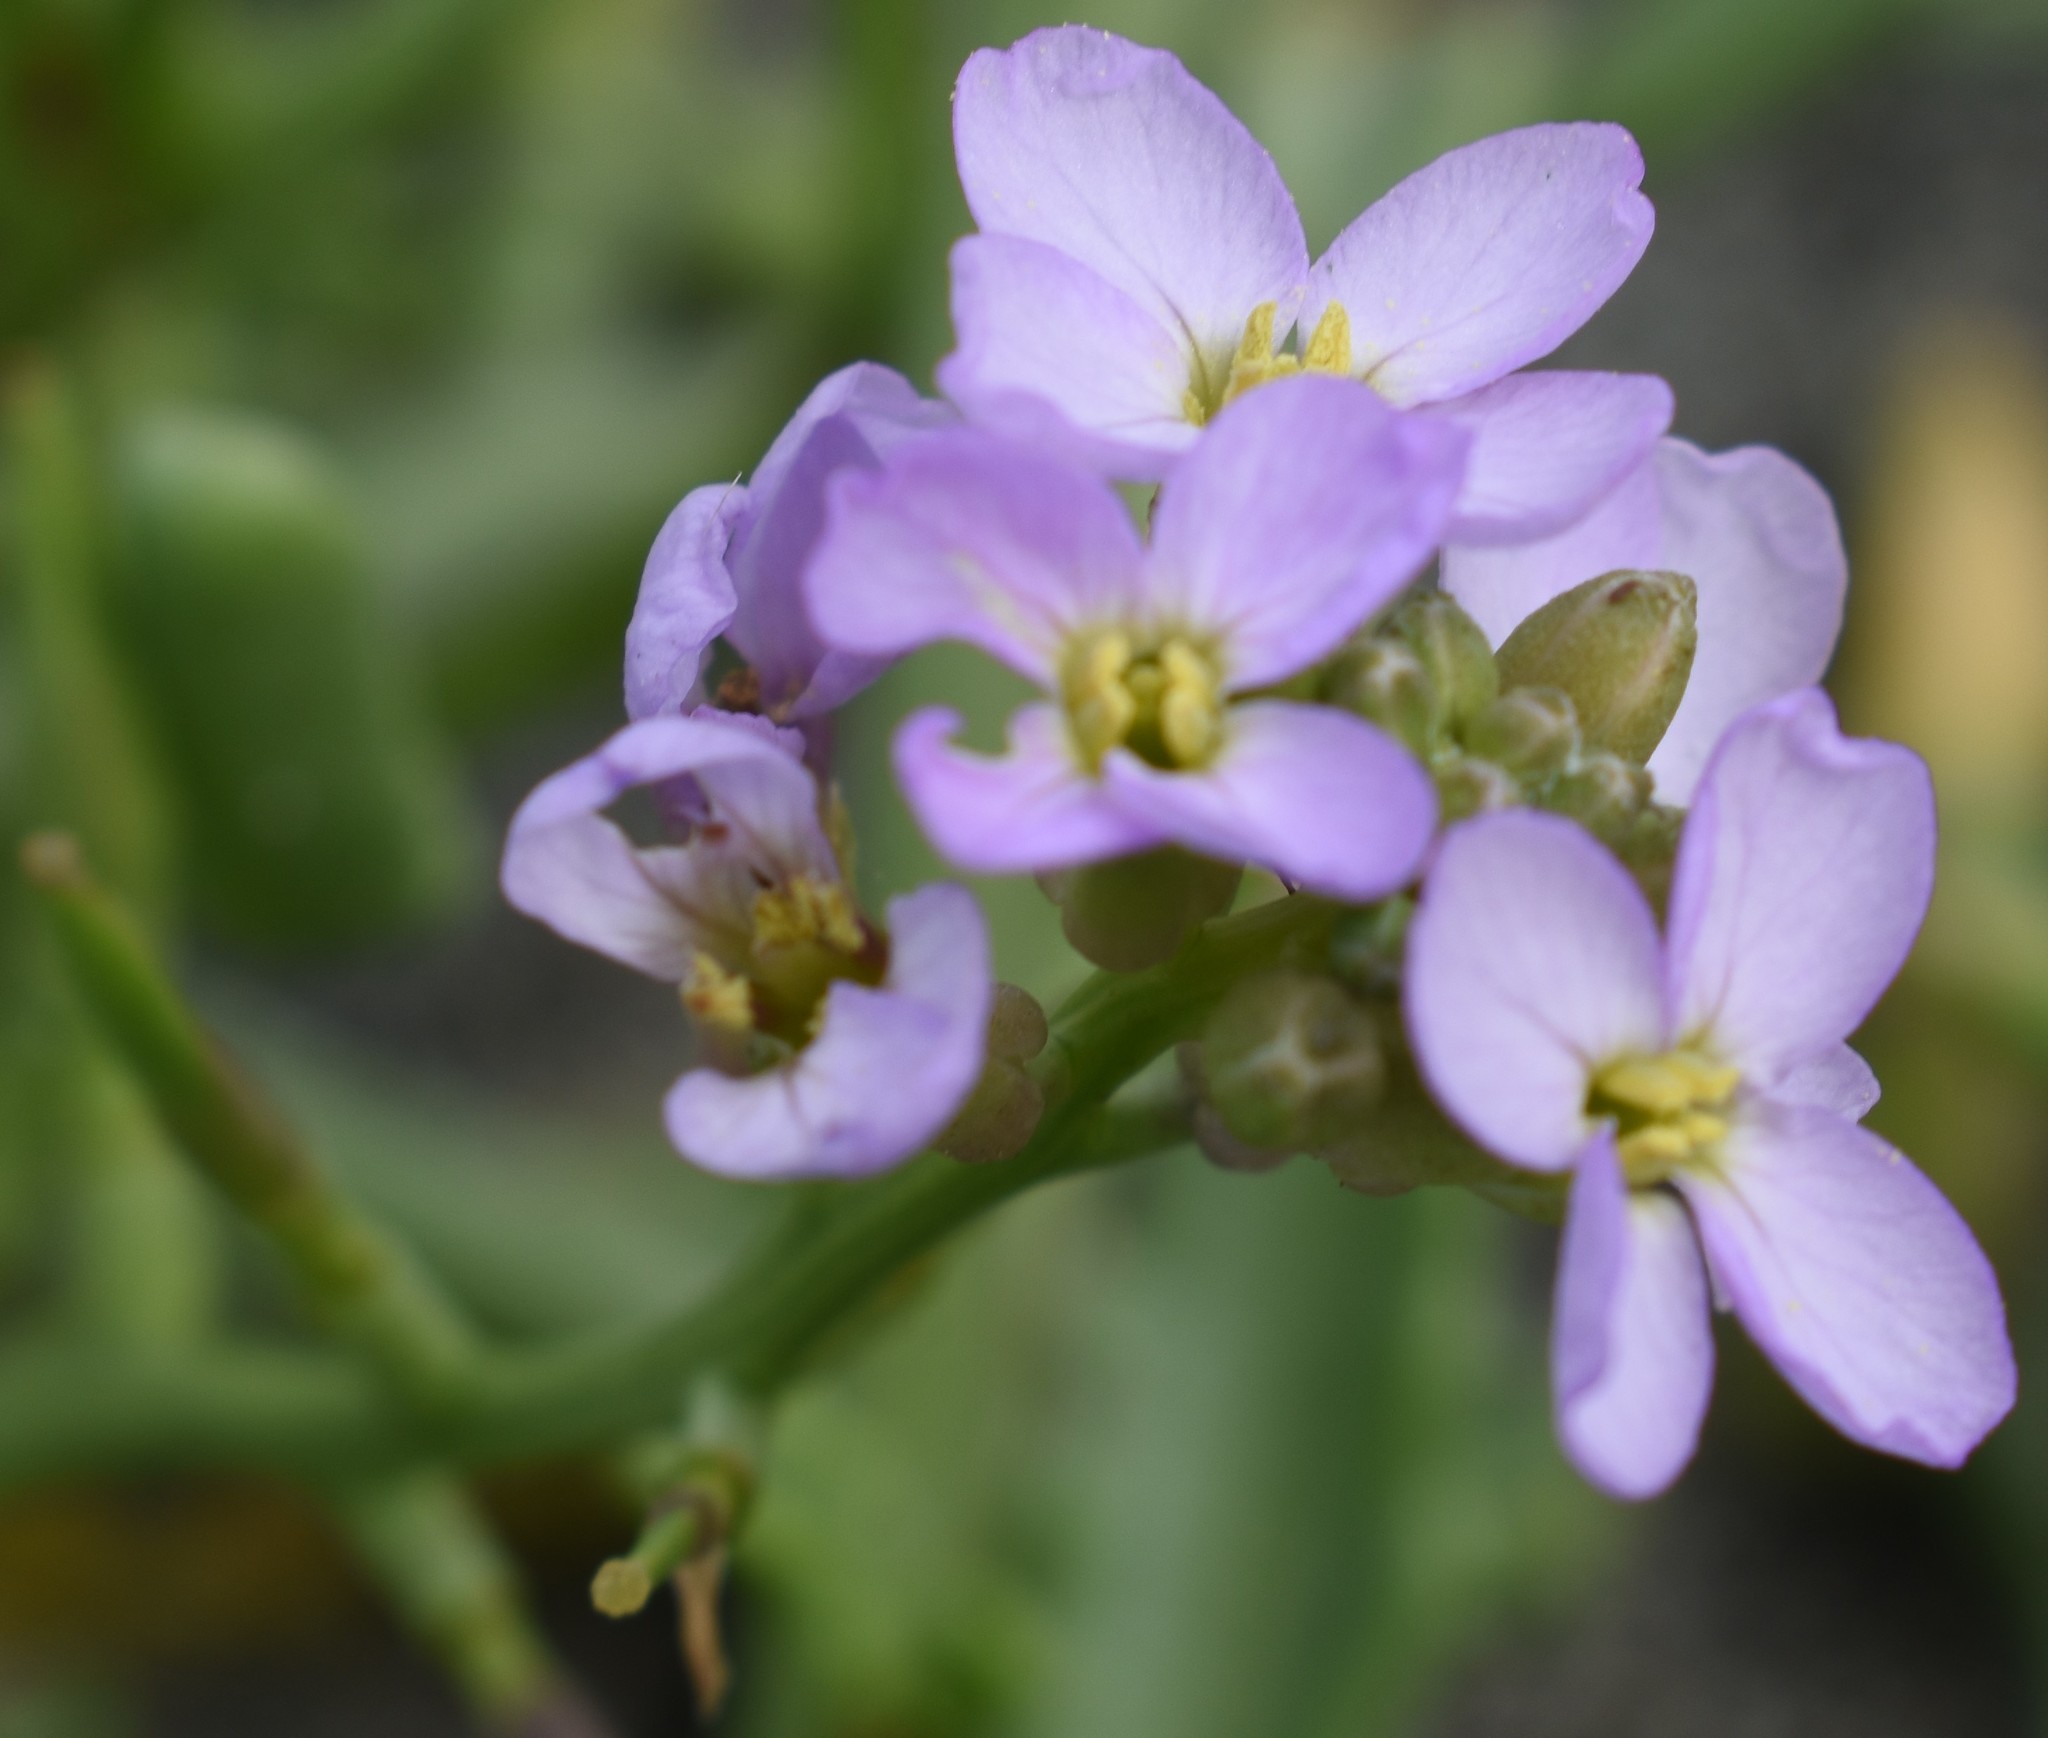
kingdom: Plantae
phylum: Tracheophyta
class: Magnoliopsida
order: Brassicales
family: Brassicaceae
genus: Cakile
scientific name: Cakile maritima
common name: Sea rocket
